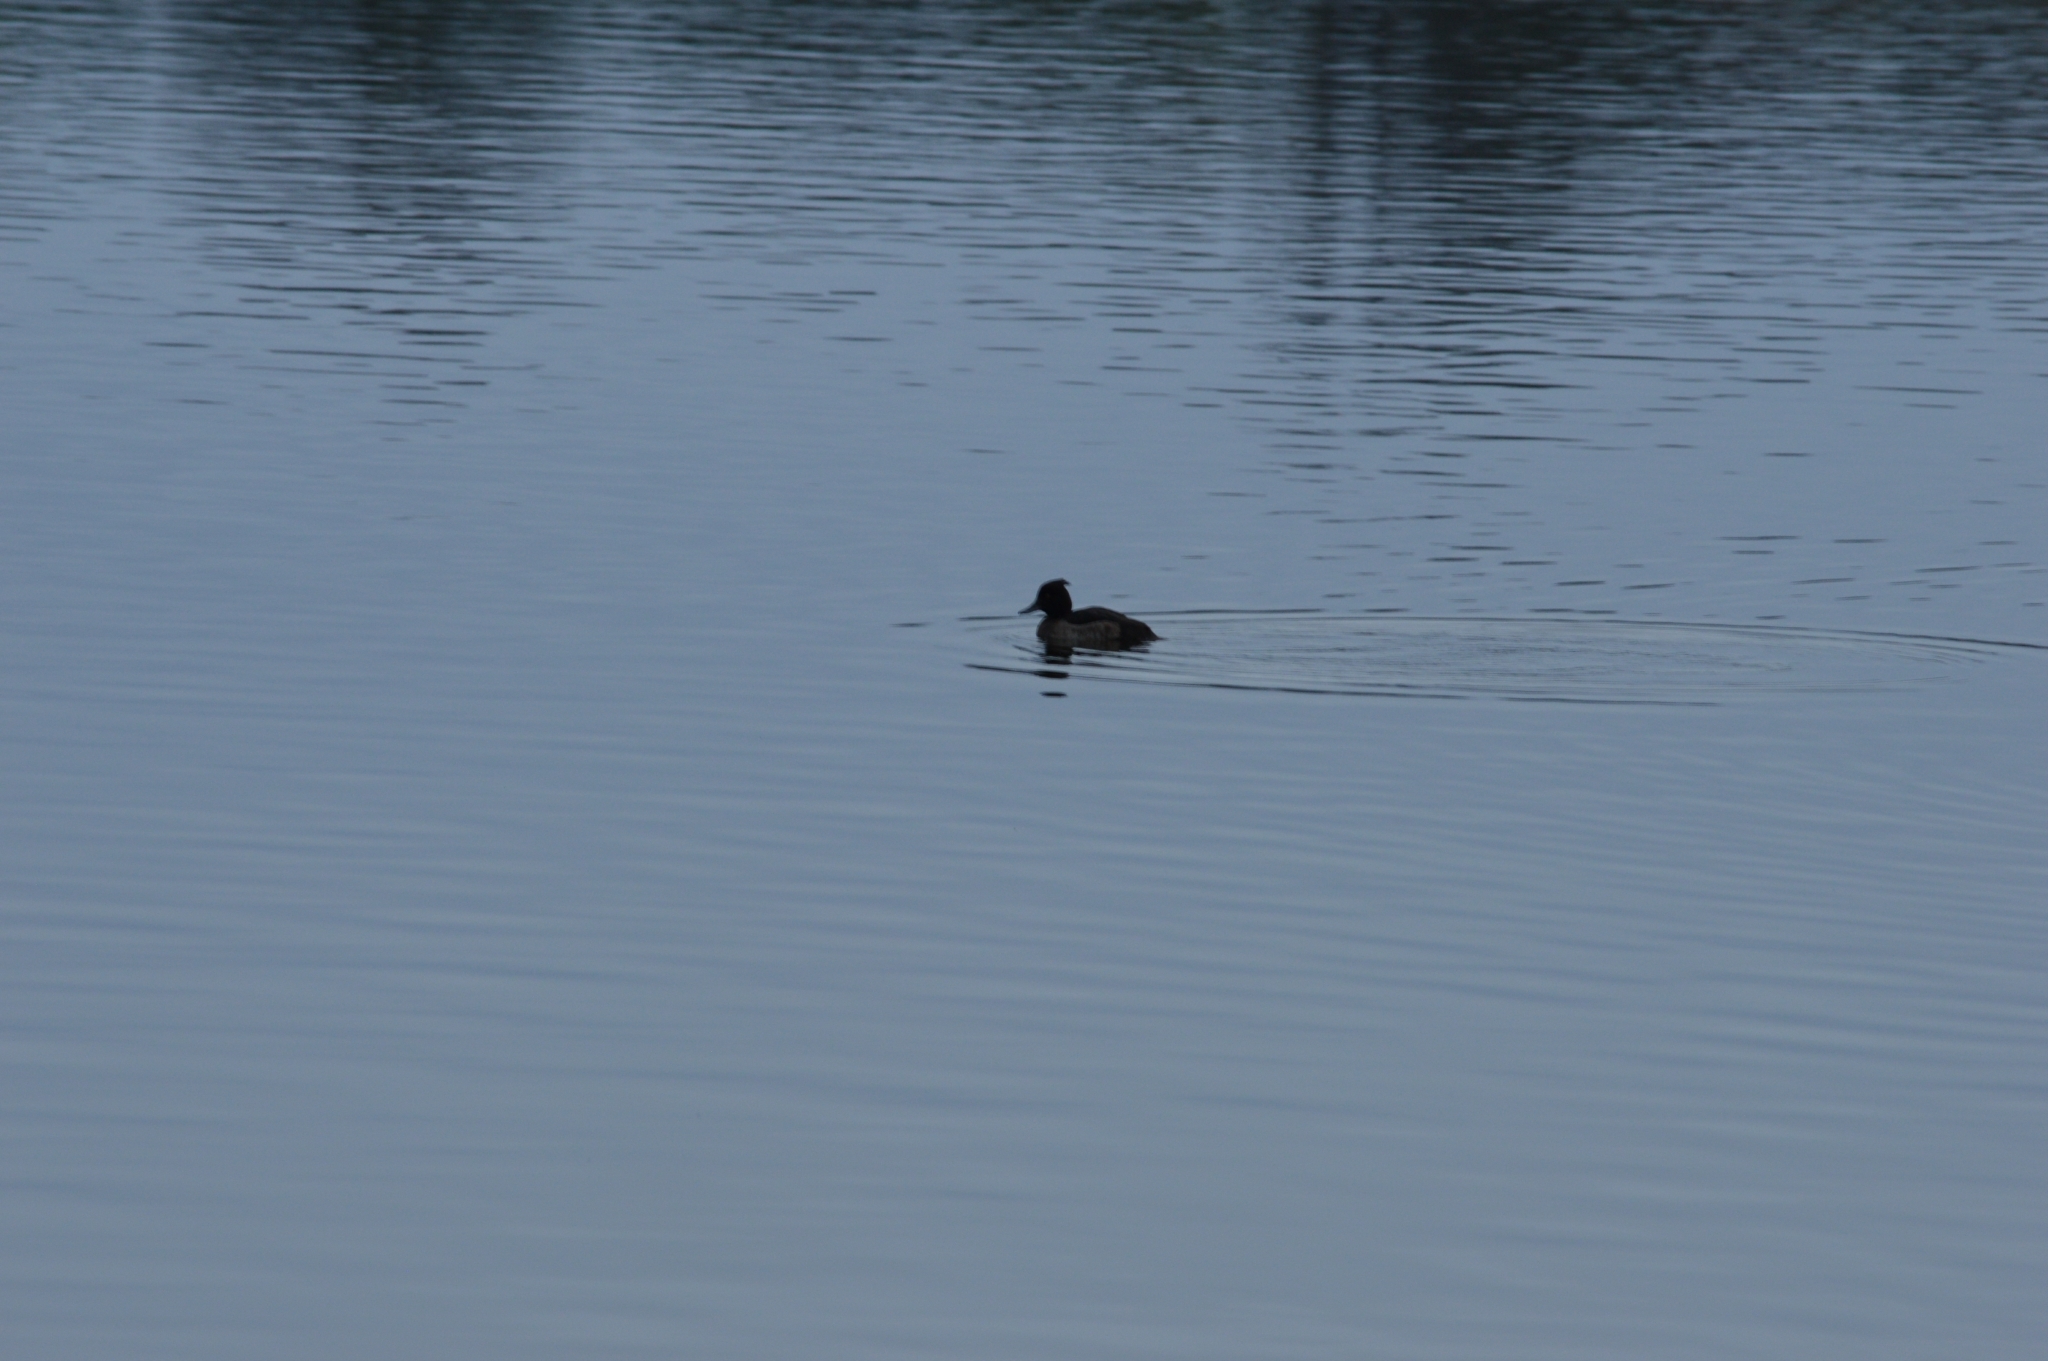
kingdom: Animalia
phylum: Chordata
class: Aves
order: Anseriformes
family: Anatidae
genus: Aythya
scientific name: Aythya fuligula
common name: Tufted duck
